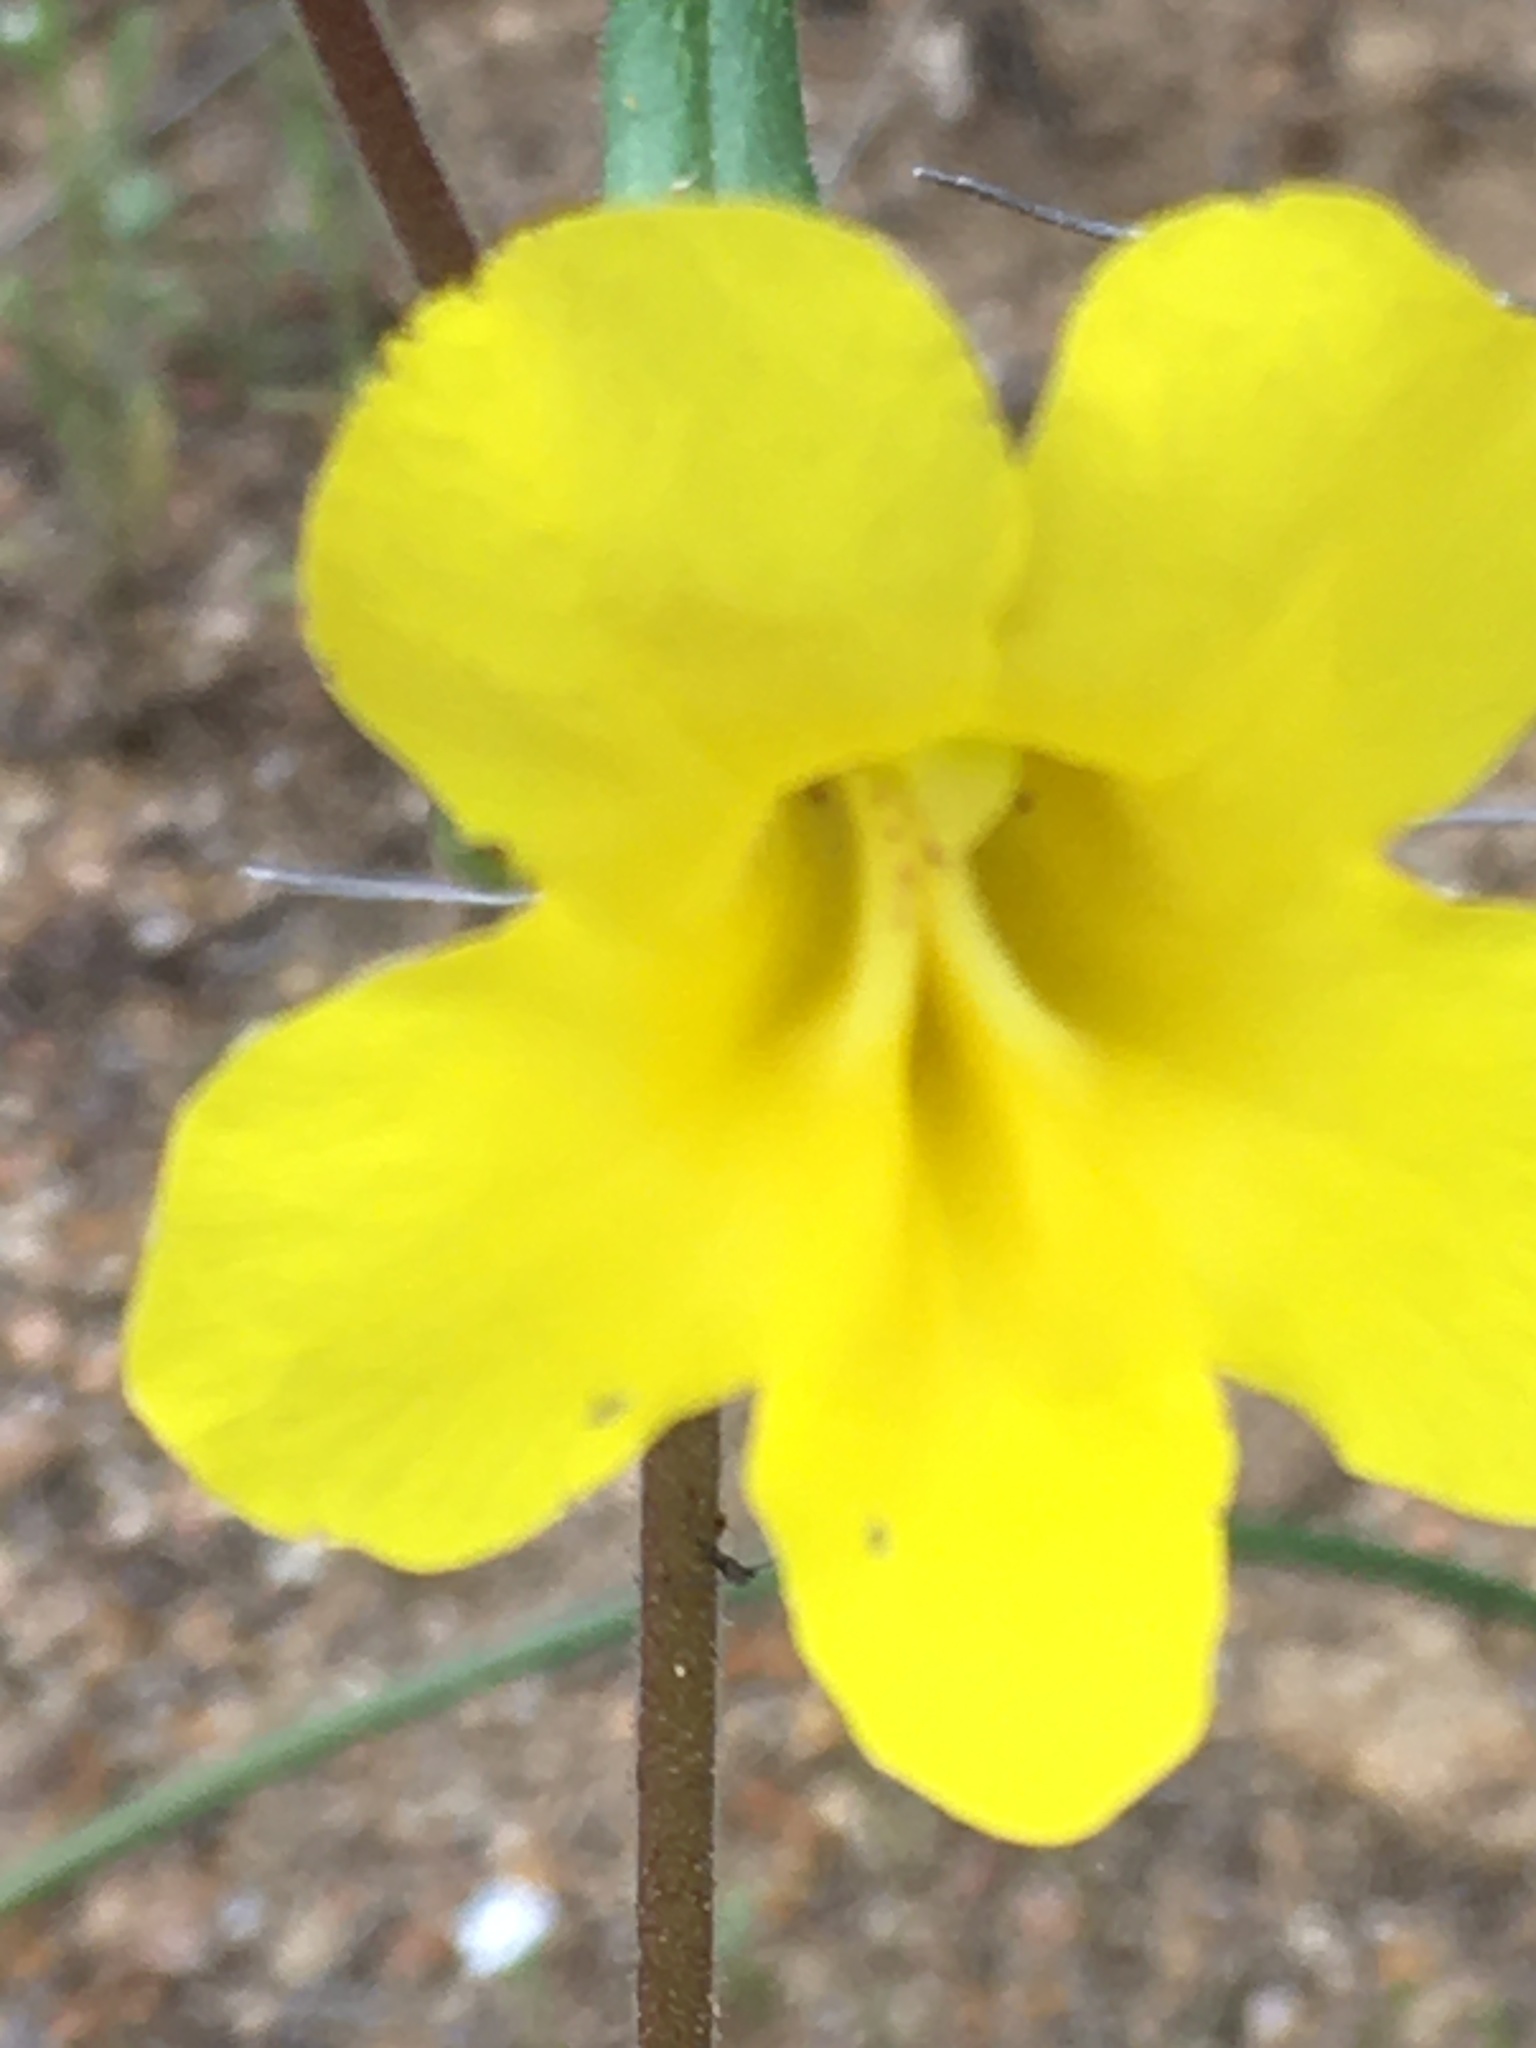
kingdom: Plantae
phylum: Tracheophyta
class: Magnoliopsida
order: Lamiales
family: Phrymaceae
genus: Diplacus
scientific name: Diplacus brevipes
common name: Wide-throat yellow monkey-flower
